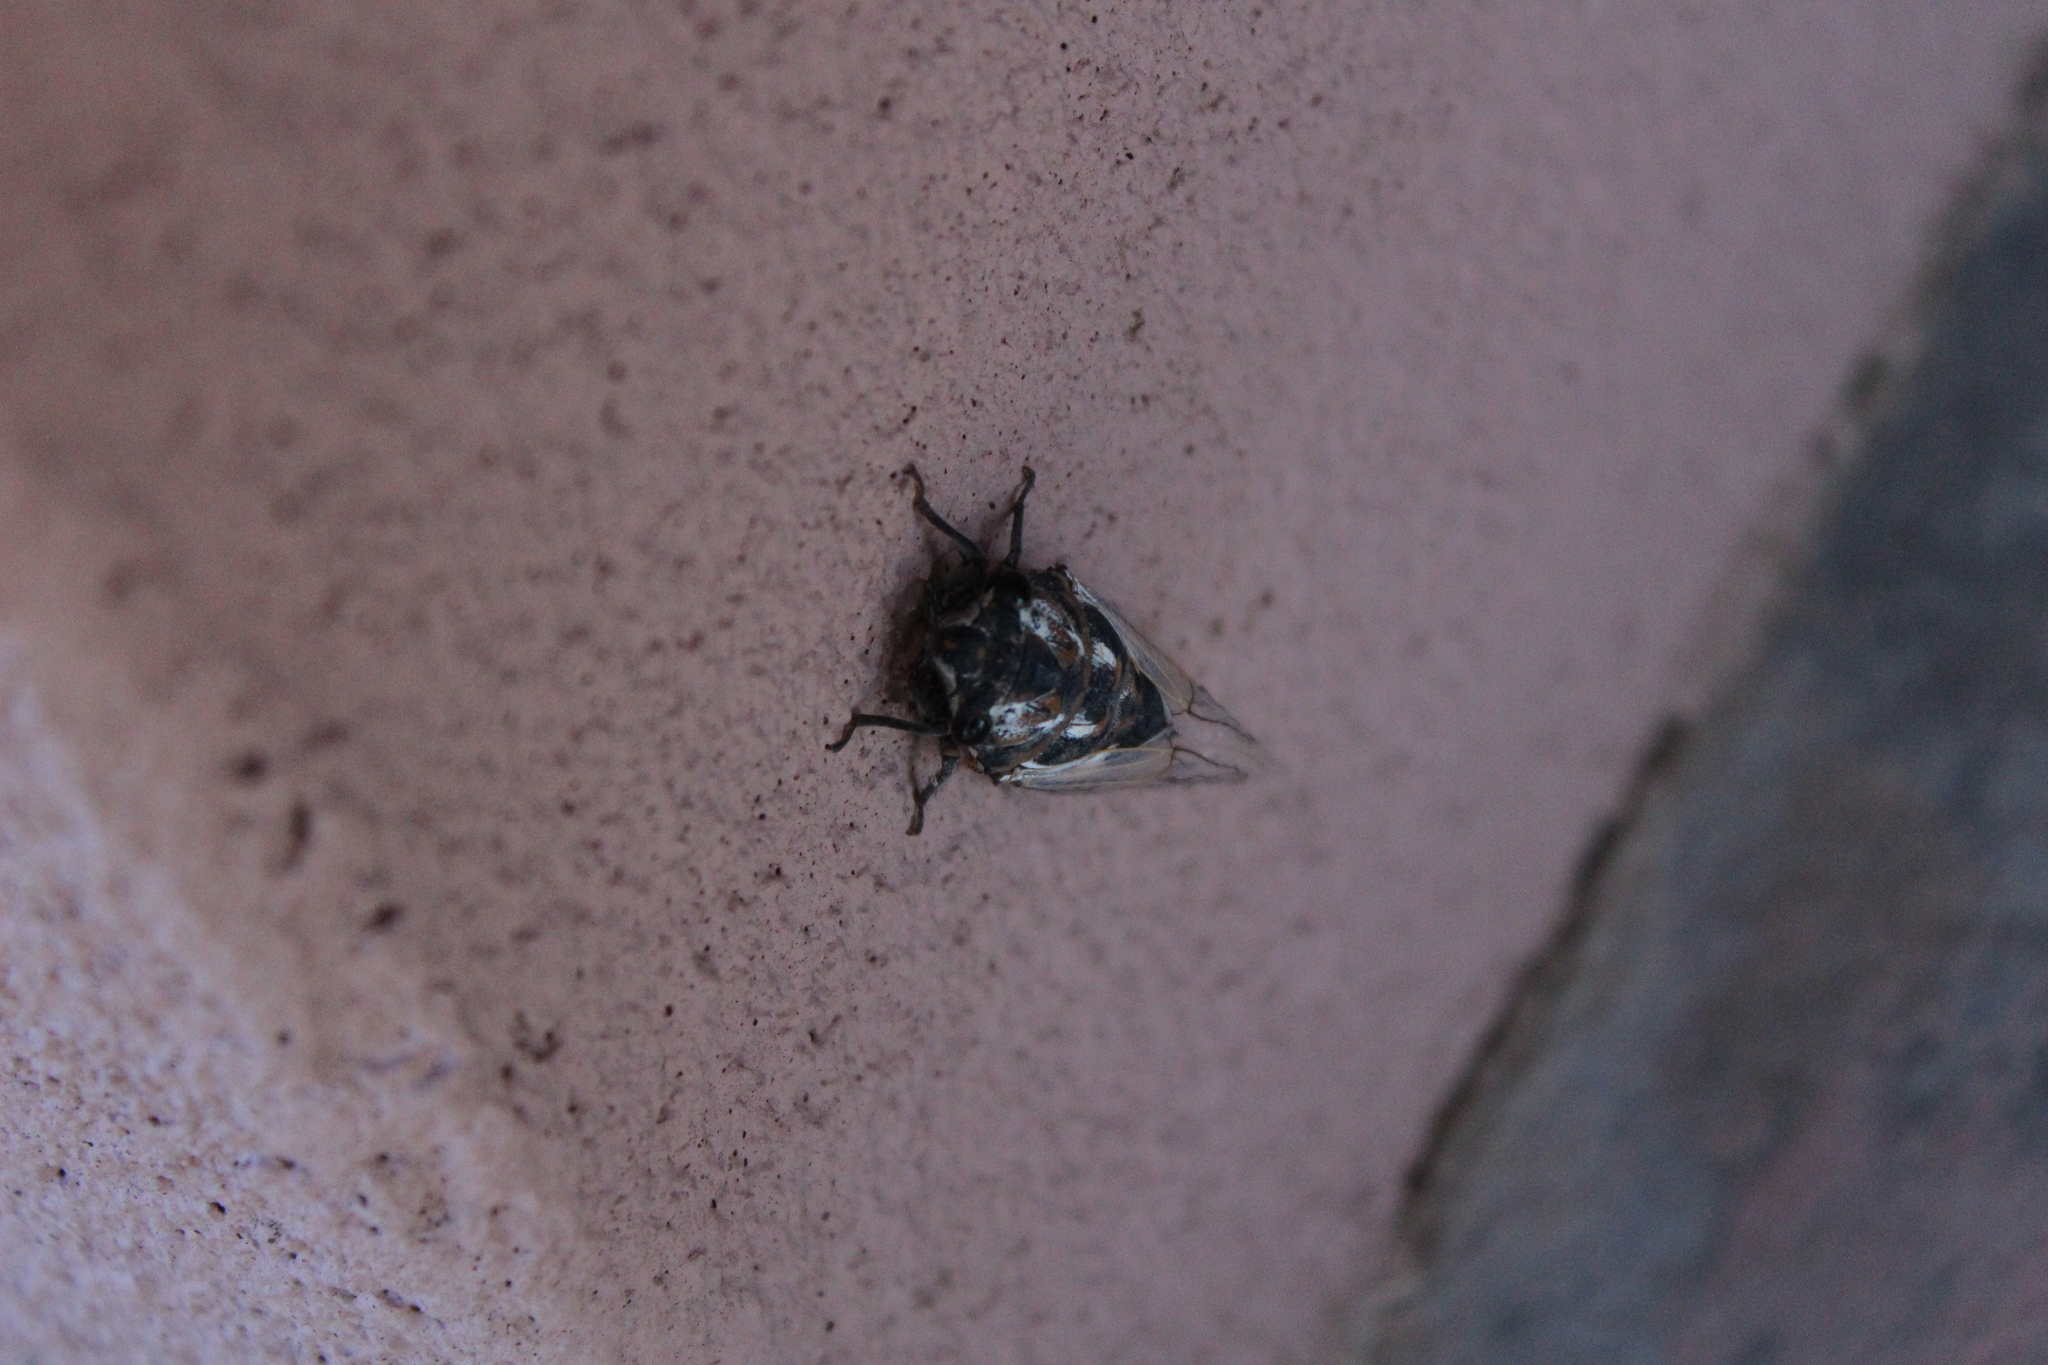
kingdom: Animalia
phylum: Arthropoda
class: Insecta
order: Hemiptera
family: Cicadidae
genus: Hadoa
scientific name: Hadoa townsendii
